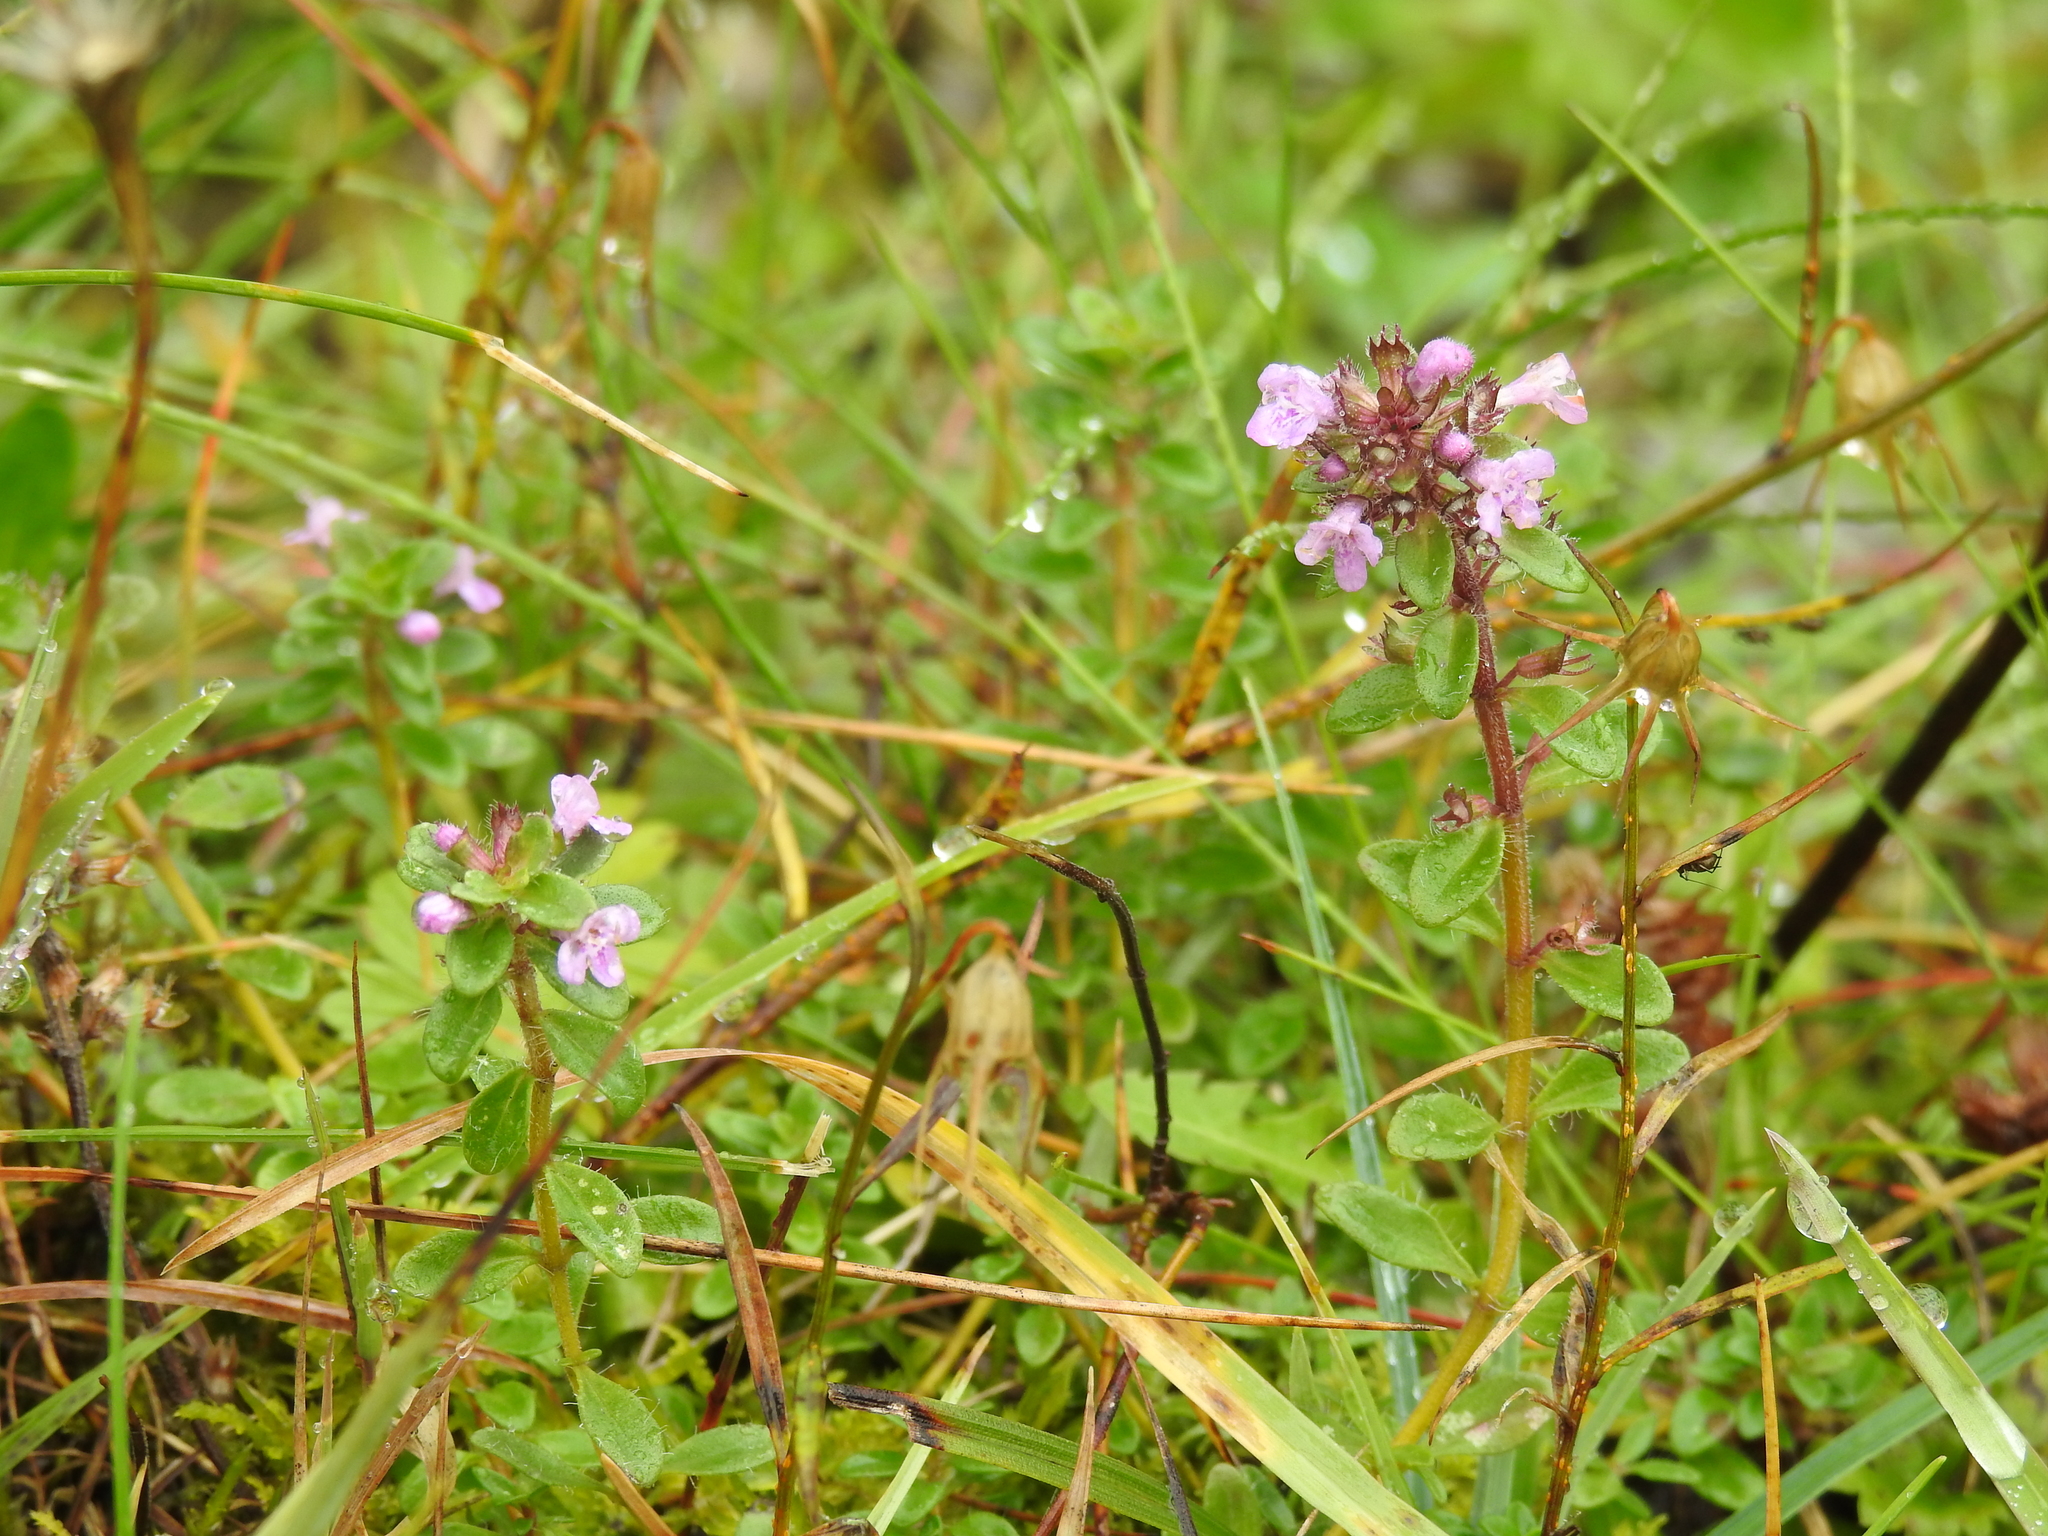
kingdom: Plantae
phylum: Tracheophyta
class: Magnoliopsida
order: Lamiales
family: Lamiaceae
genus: Thymus
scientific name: Thymus pulegioides
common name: Large thyme
